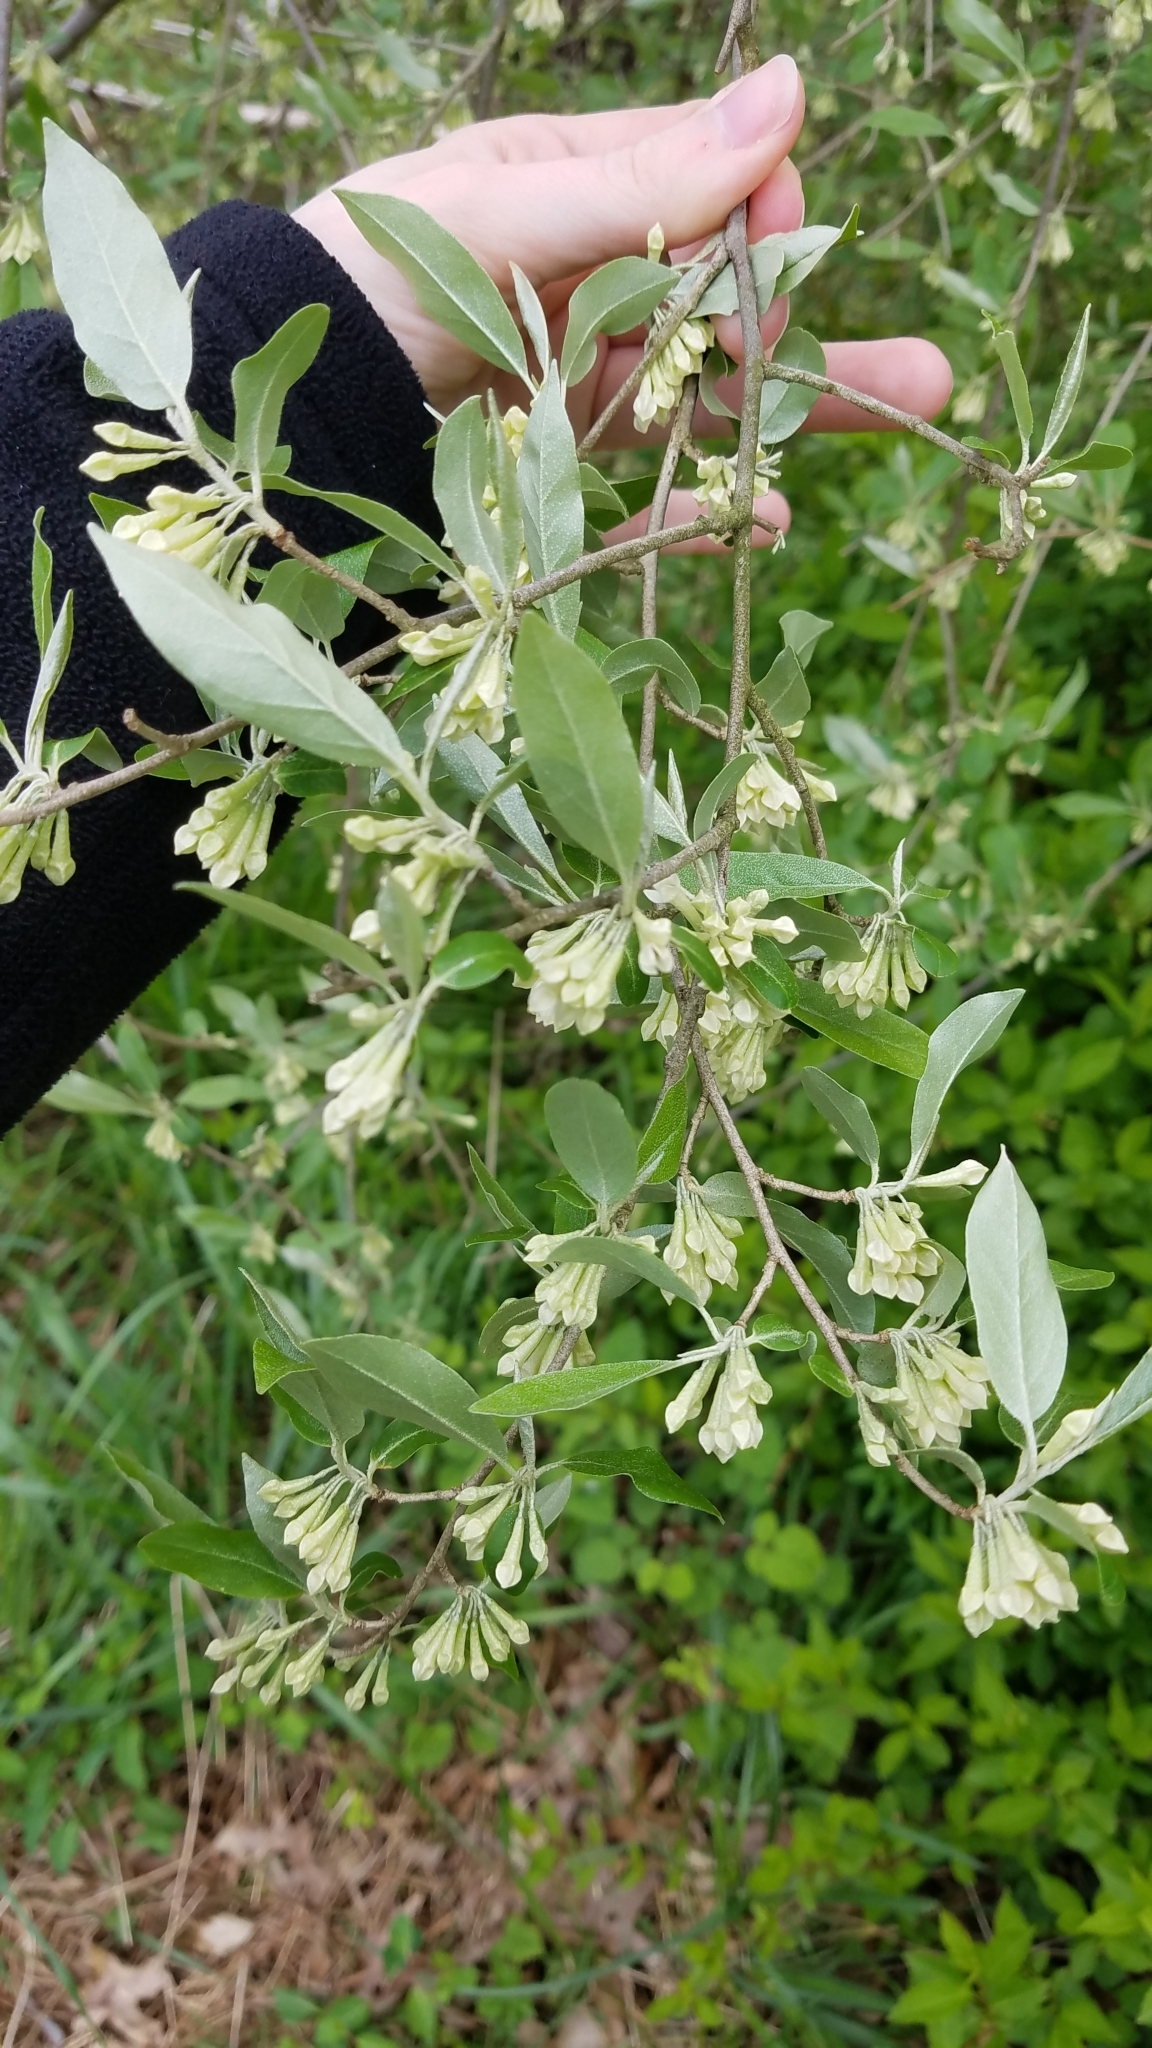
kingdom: Plantae
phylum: Tracheophyta
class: Magnoliopsida
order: Rosales
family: Elaeagnaceae
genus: Elaeagnus
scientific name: Elaeagnus umbellata
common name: Autumn olive
